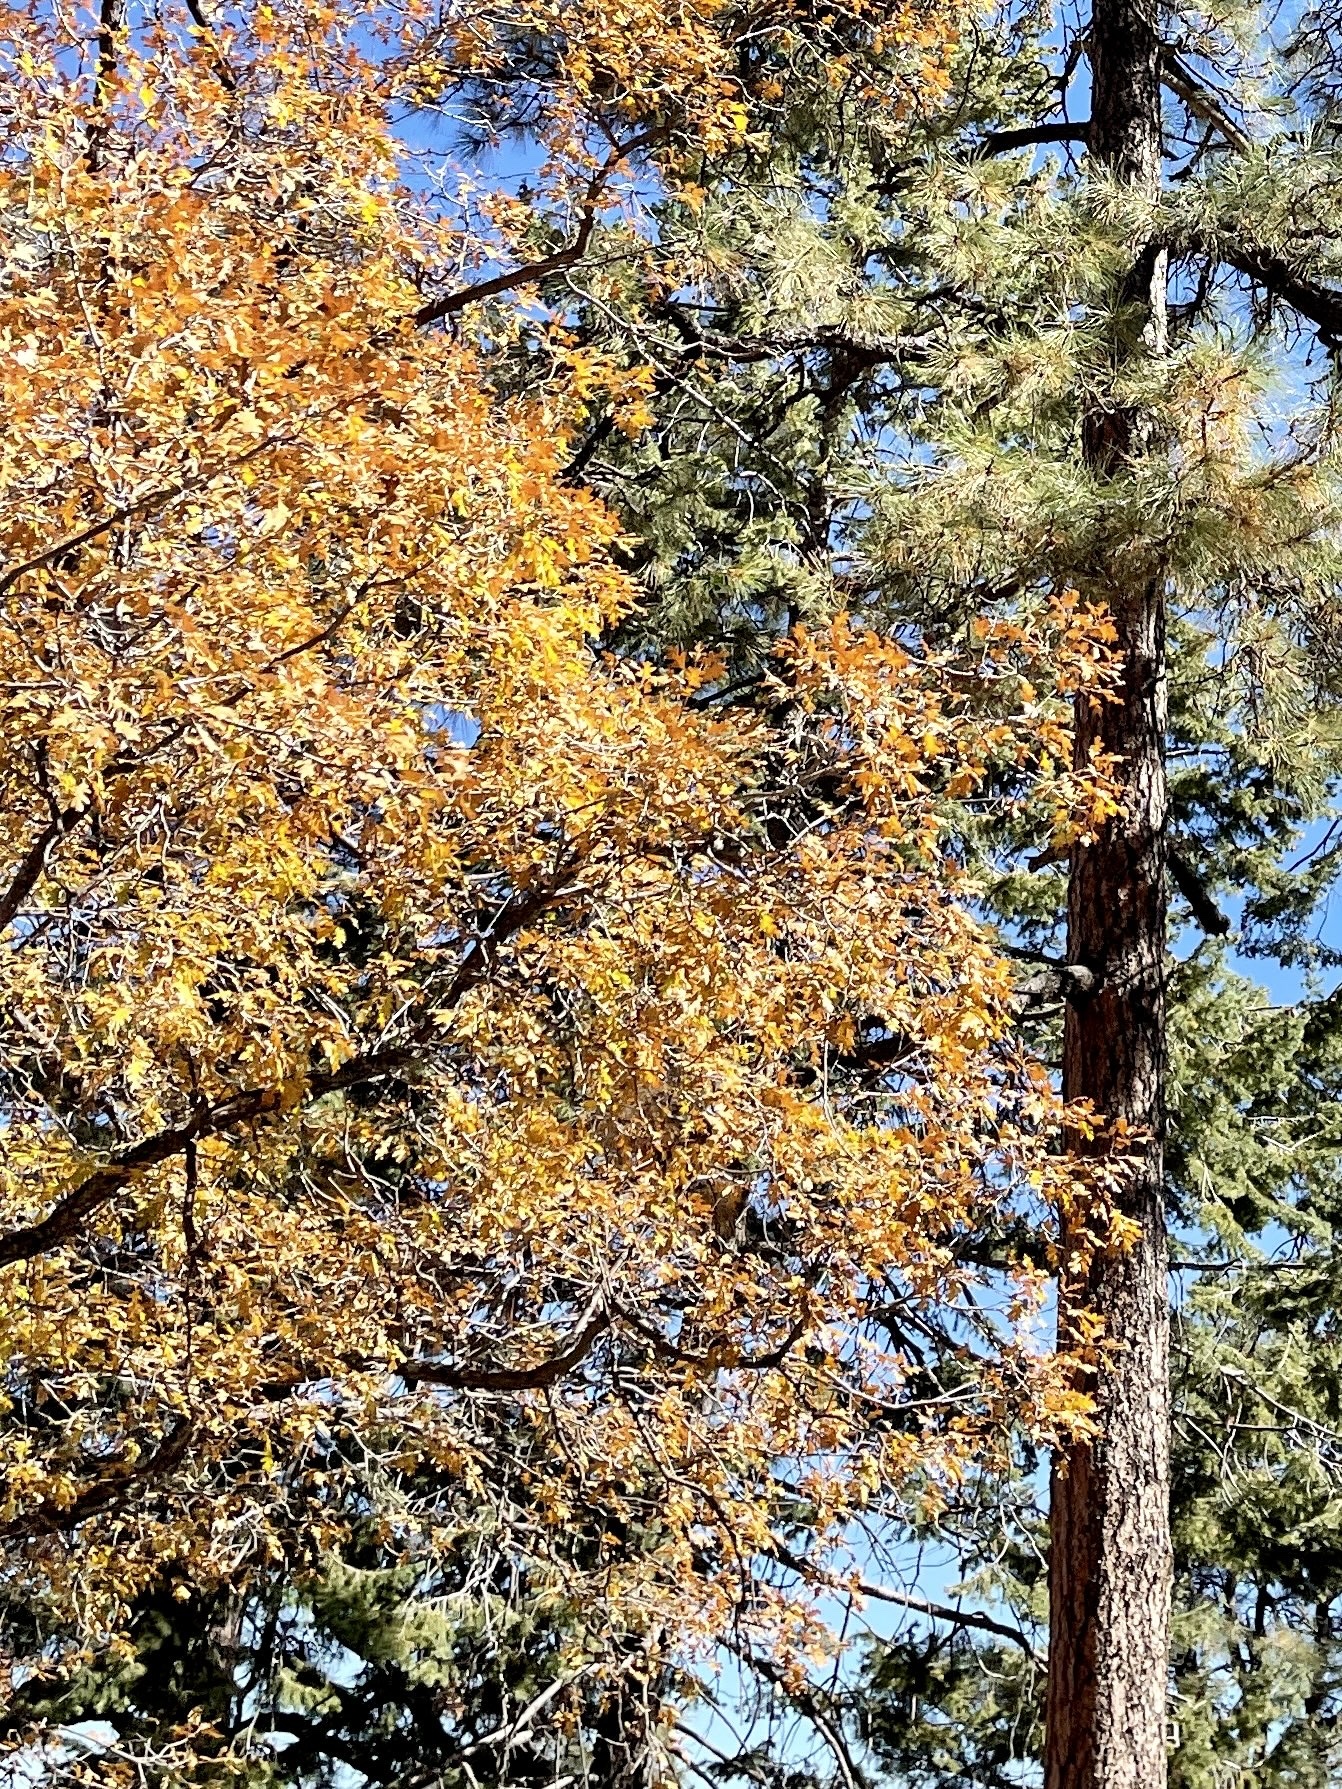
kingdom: Plantae
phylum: Tracheophyta
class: Magnoliopsida
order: Fagales
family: Fagaceae
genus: Quercus
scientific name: Quercus gambelii
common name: Gambel oak
